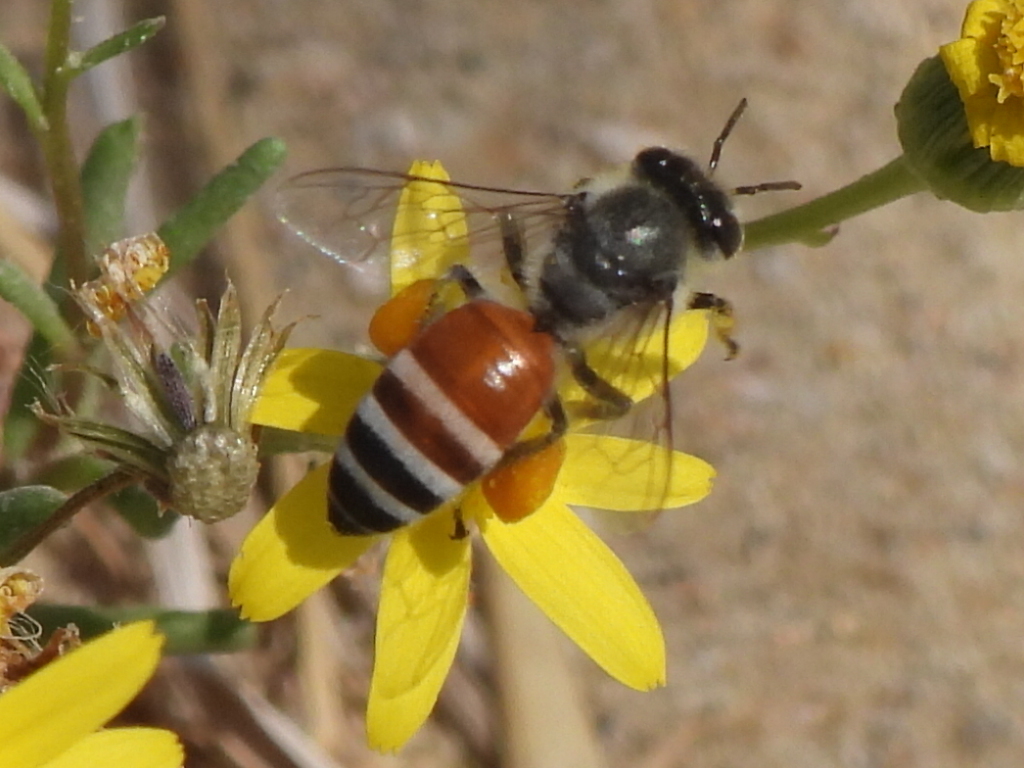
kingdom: Animalia
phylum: Arthropoda
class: Insecta
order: Hymenoptera
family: Apidae
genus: Apis
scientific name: Apis florea
